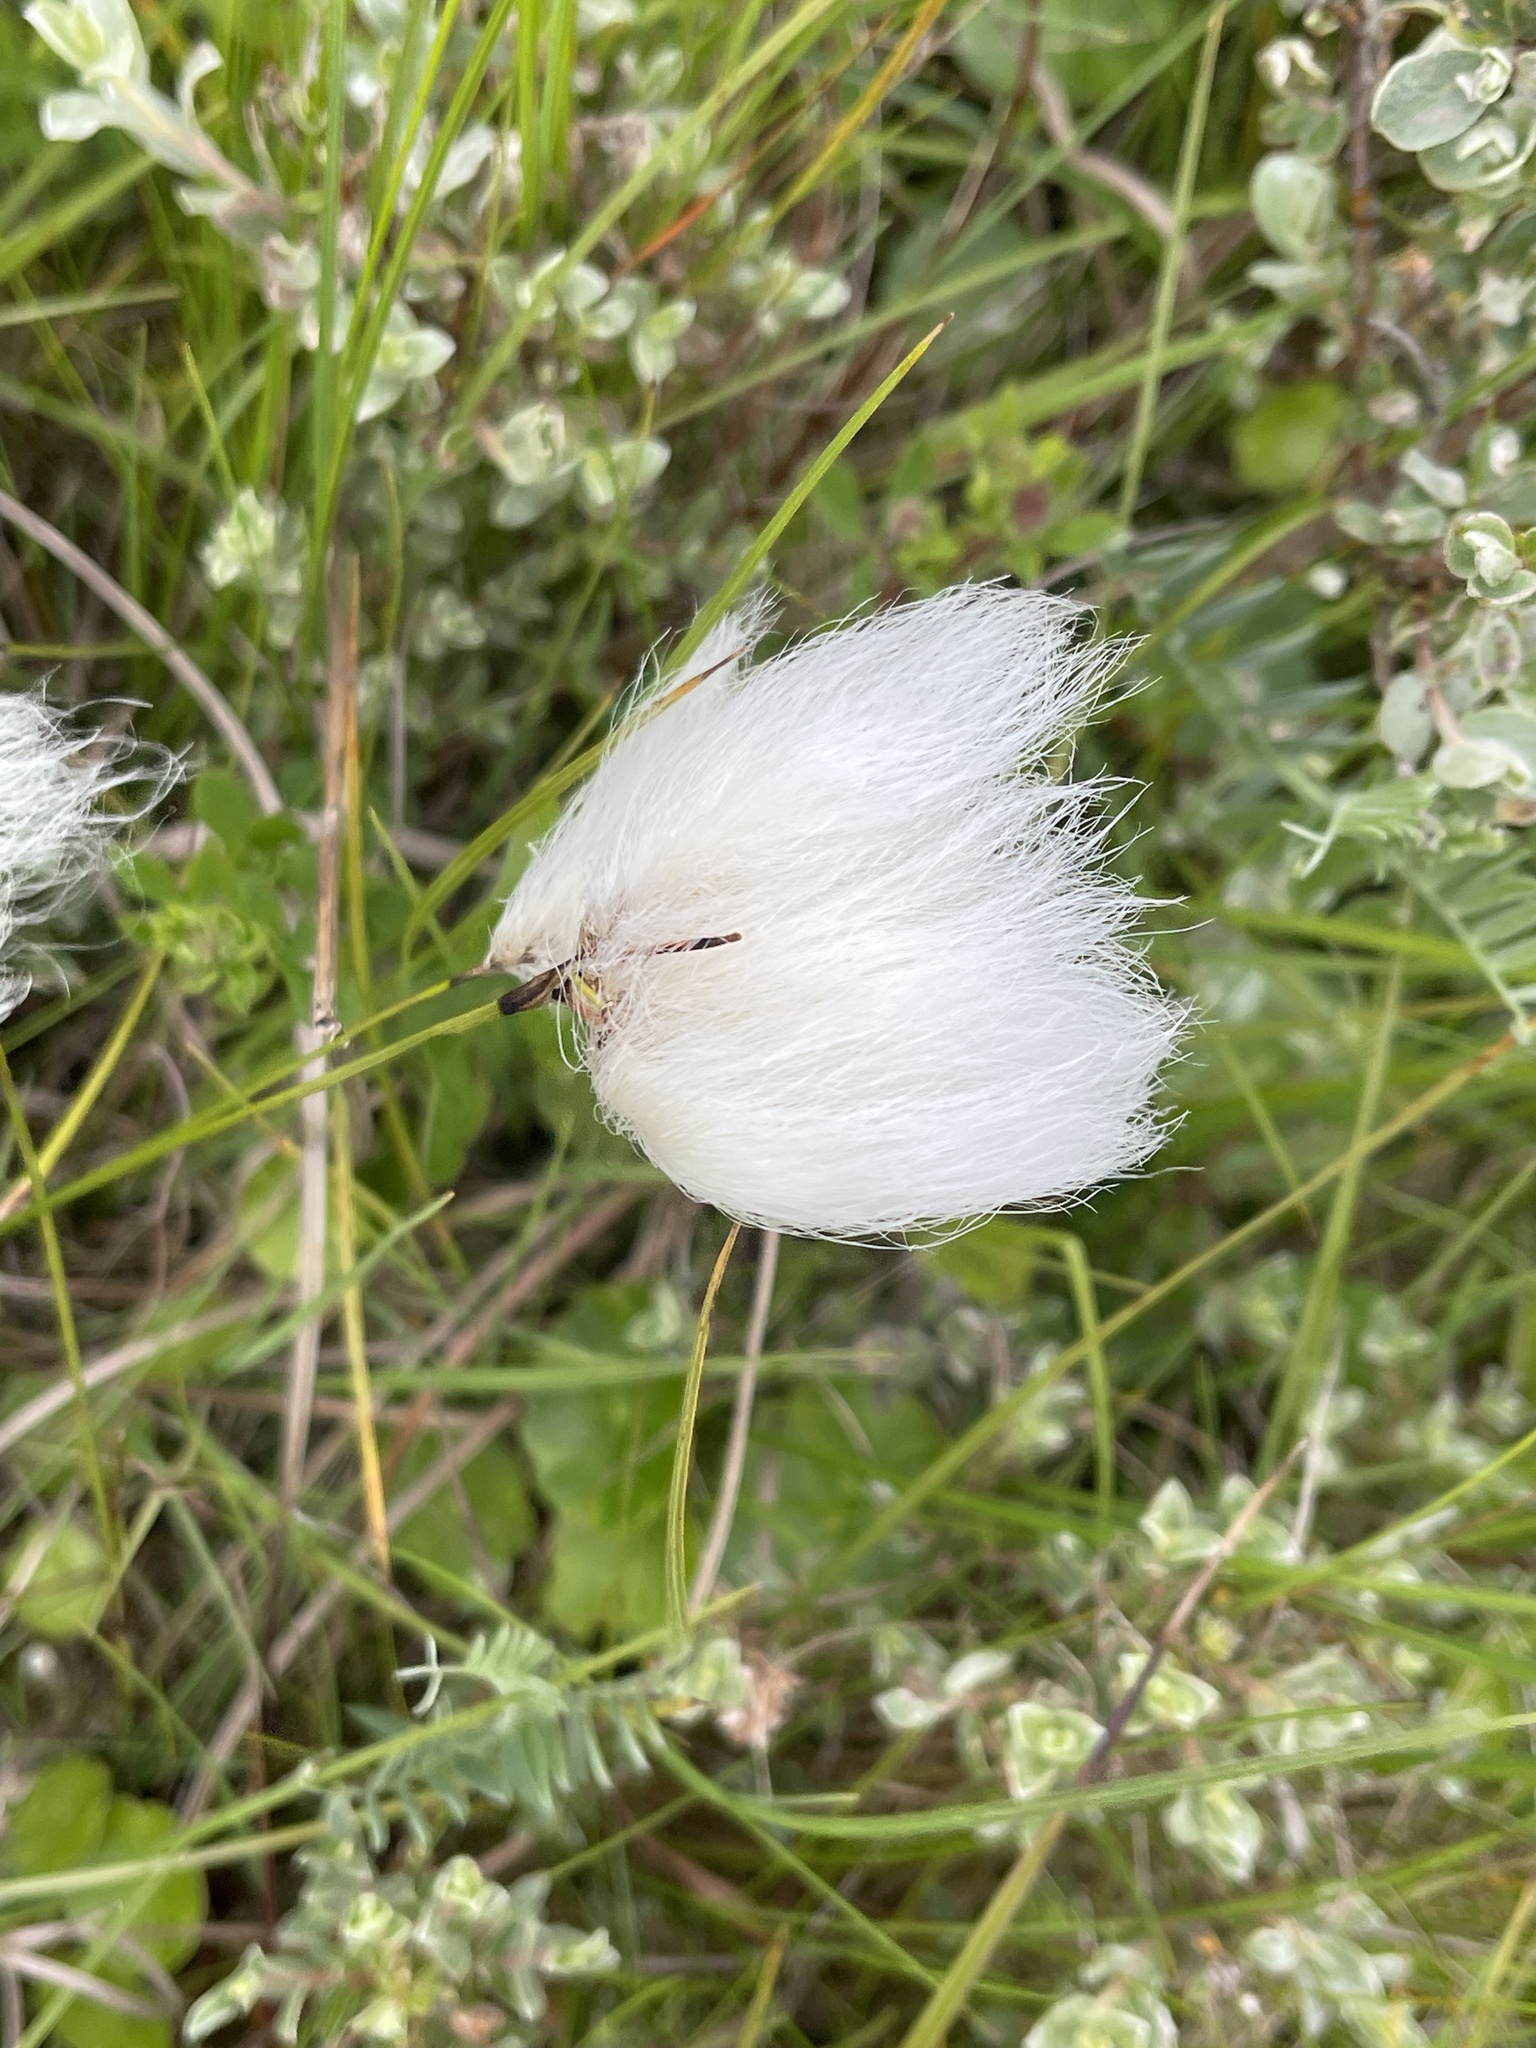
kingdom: Plantae
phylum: Tracheophyta
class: Liliopsida
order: Poales
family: Cyperaceae
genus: Eriophorum
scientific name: Eriophorum angustifolium
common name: Common cottongrass
